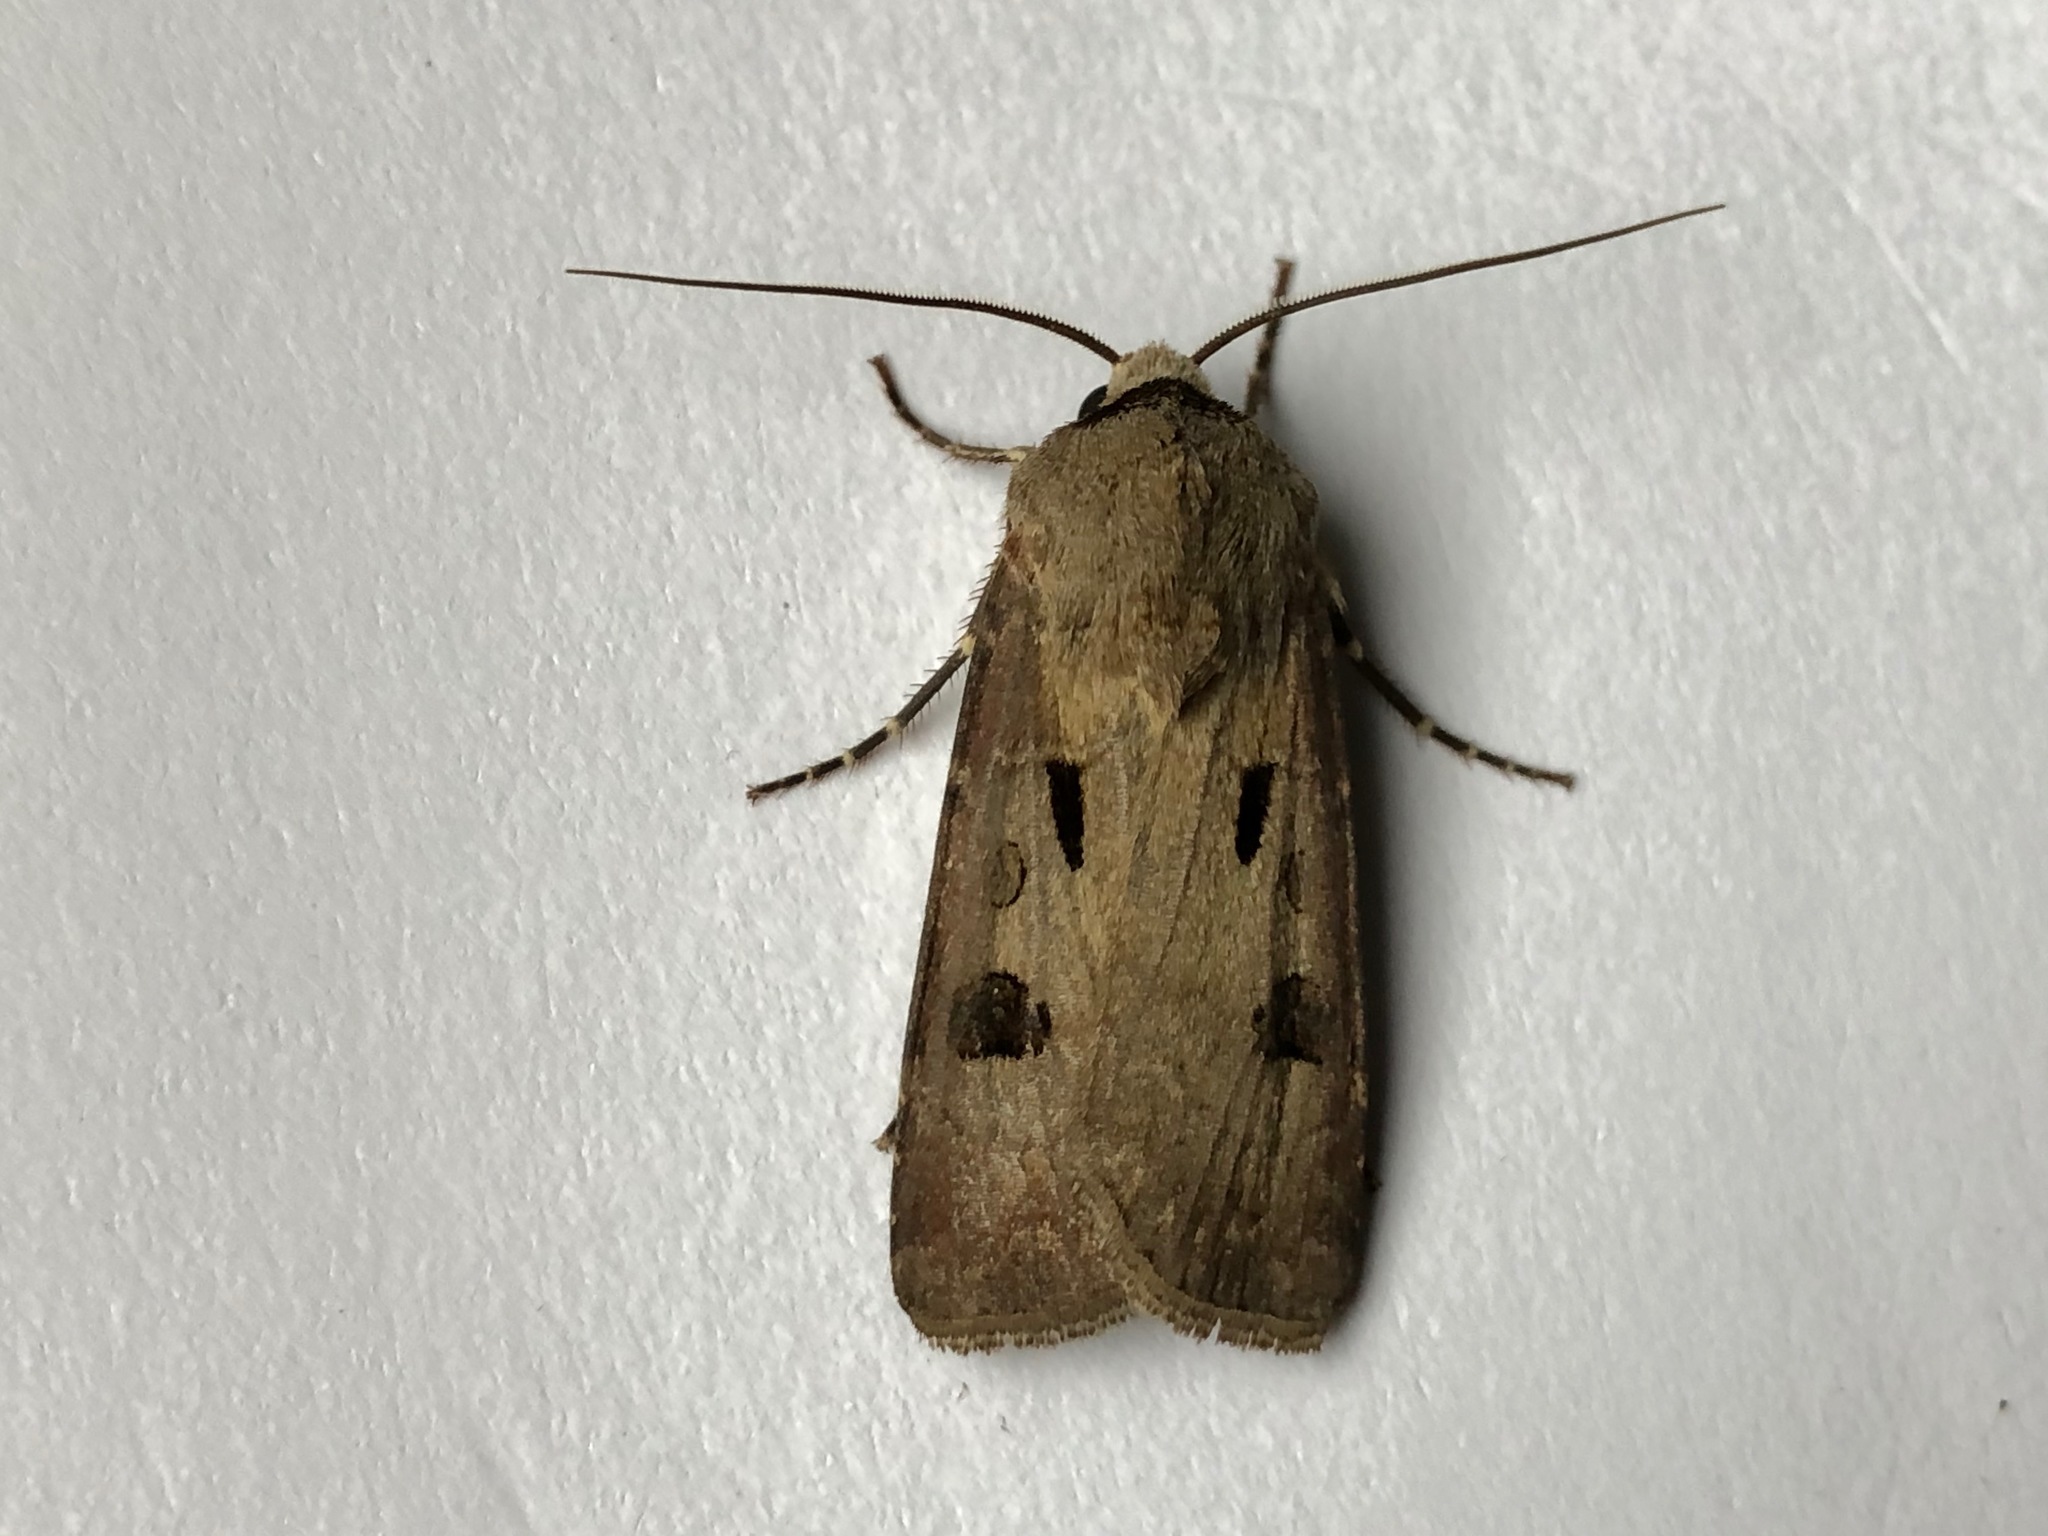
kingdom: Animalia
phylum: Arthropoda
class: Insecta
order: Lepidoptera
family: Noctuidae
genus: Agrotis
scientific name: Agrotis exclamationis
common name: Heart and dart
